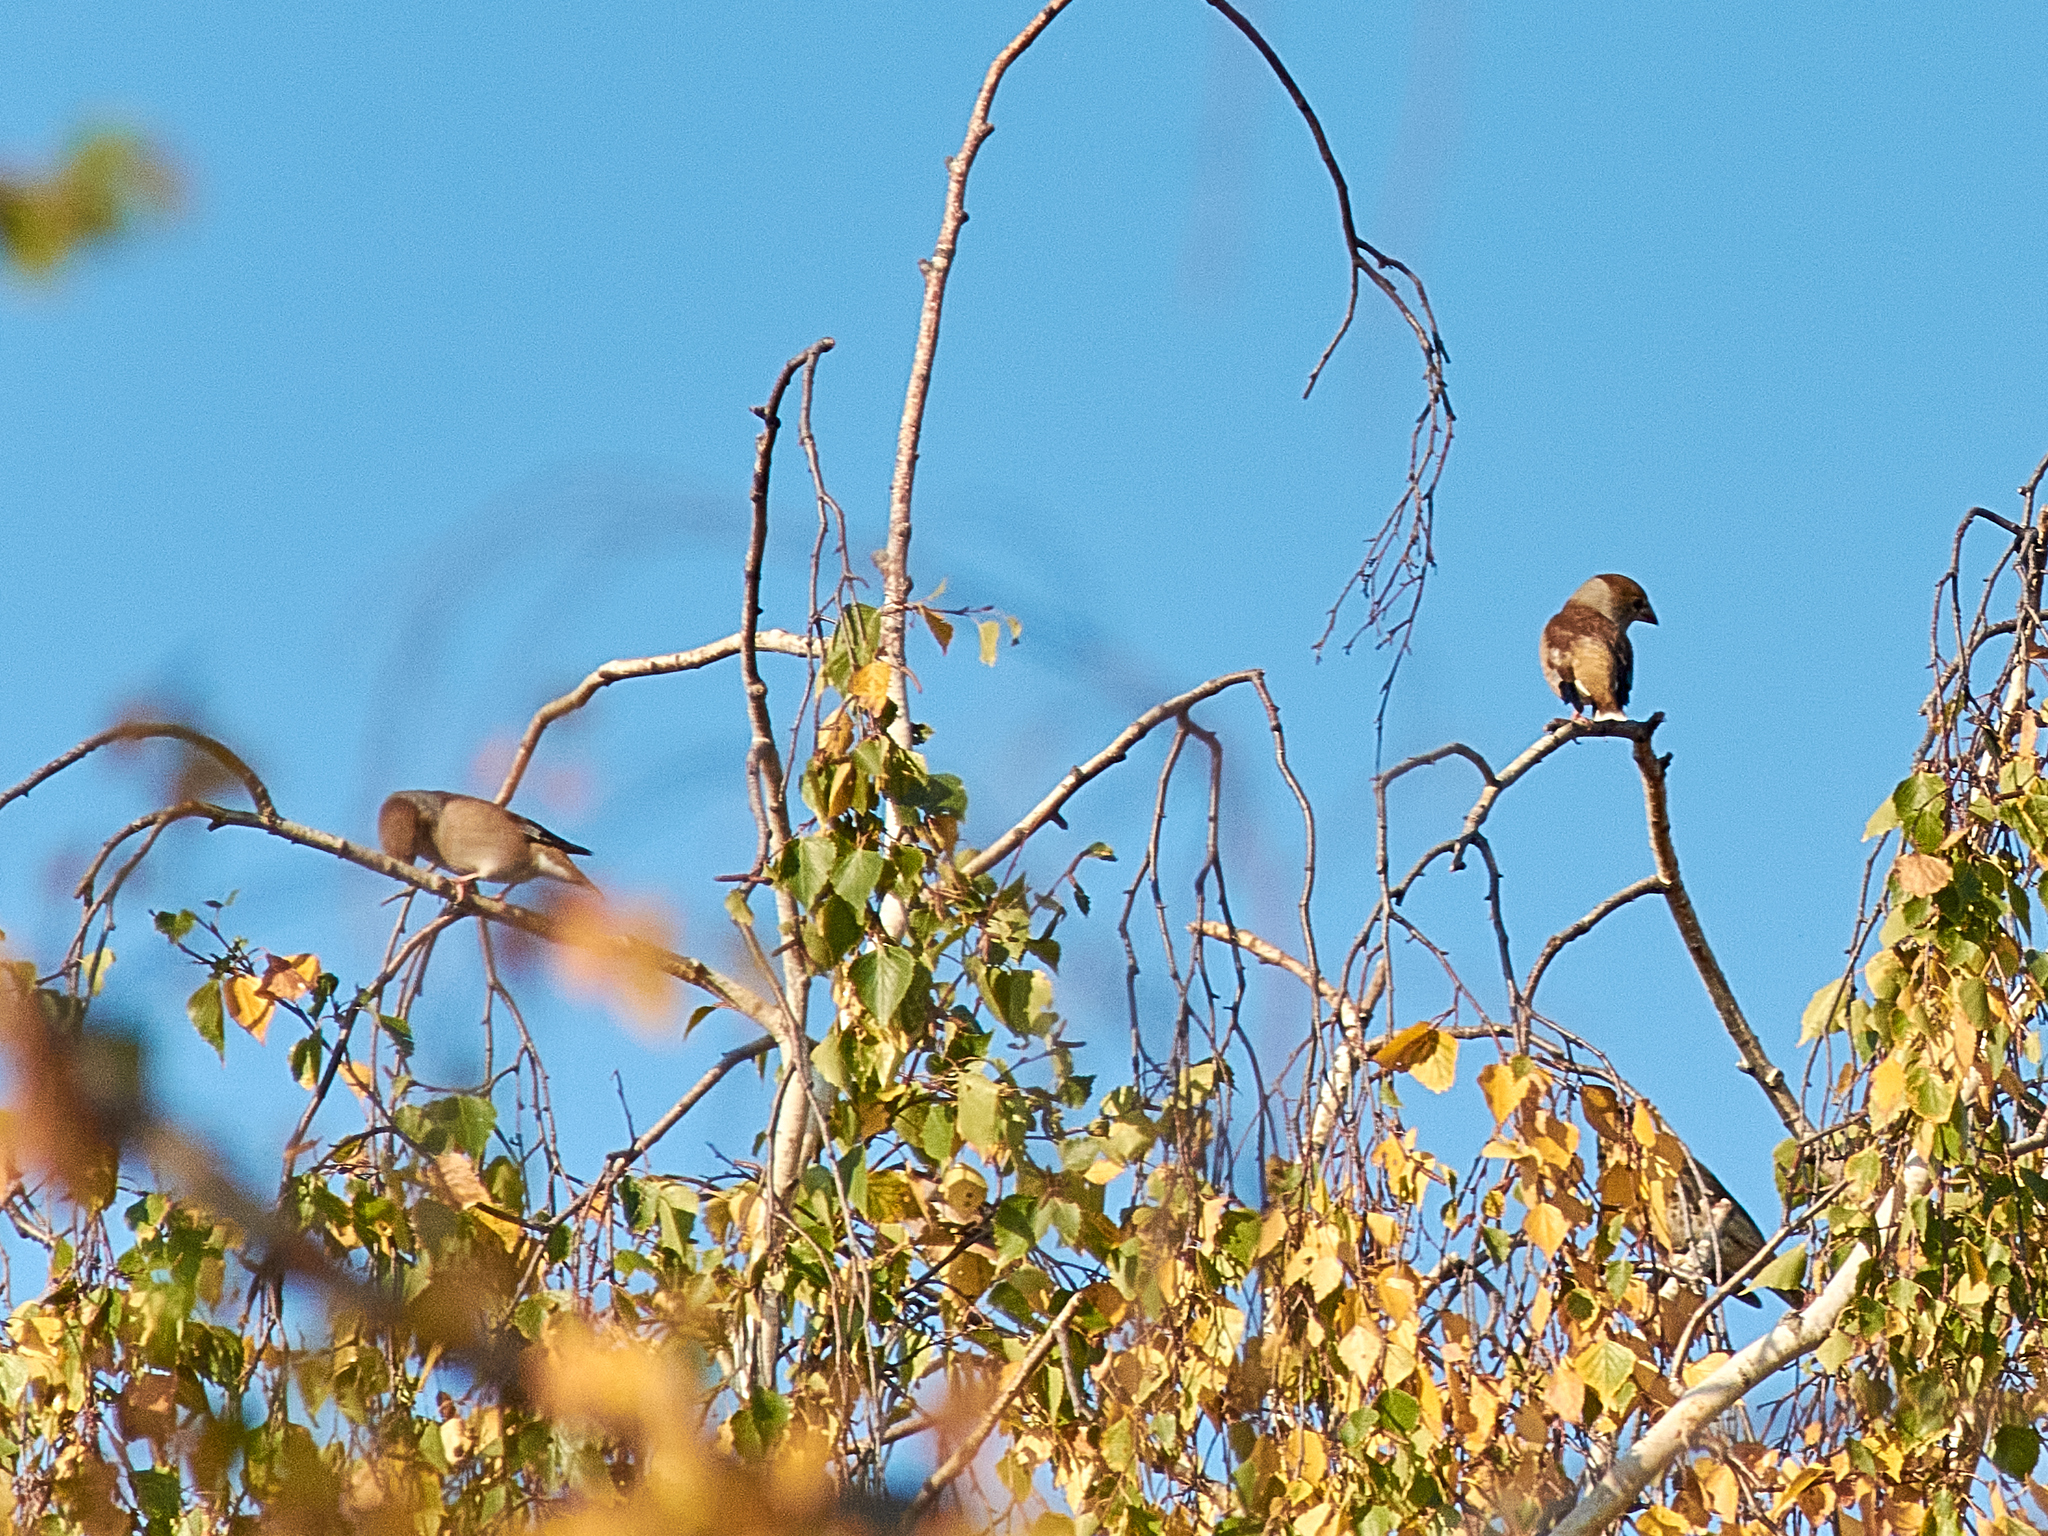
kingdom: Animalia
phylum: Chordata
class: Aves
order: Passeriformes
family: Fringillidae
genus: Coccothraustes
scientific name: Coccothraustes coccothraustes
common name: Hawfinch
